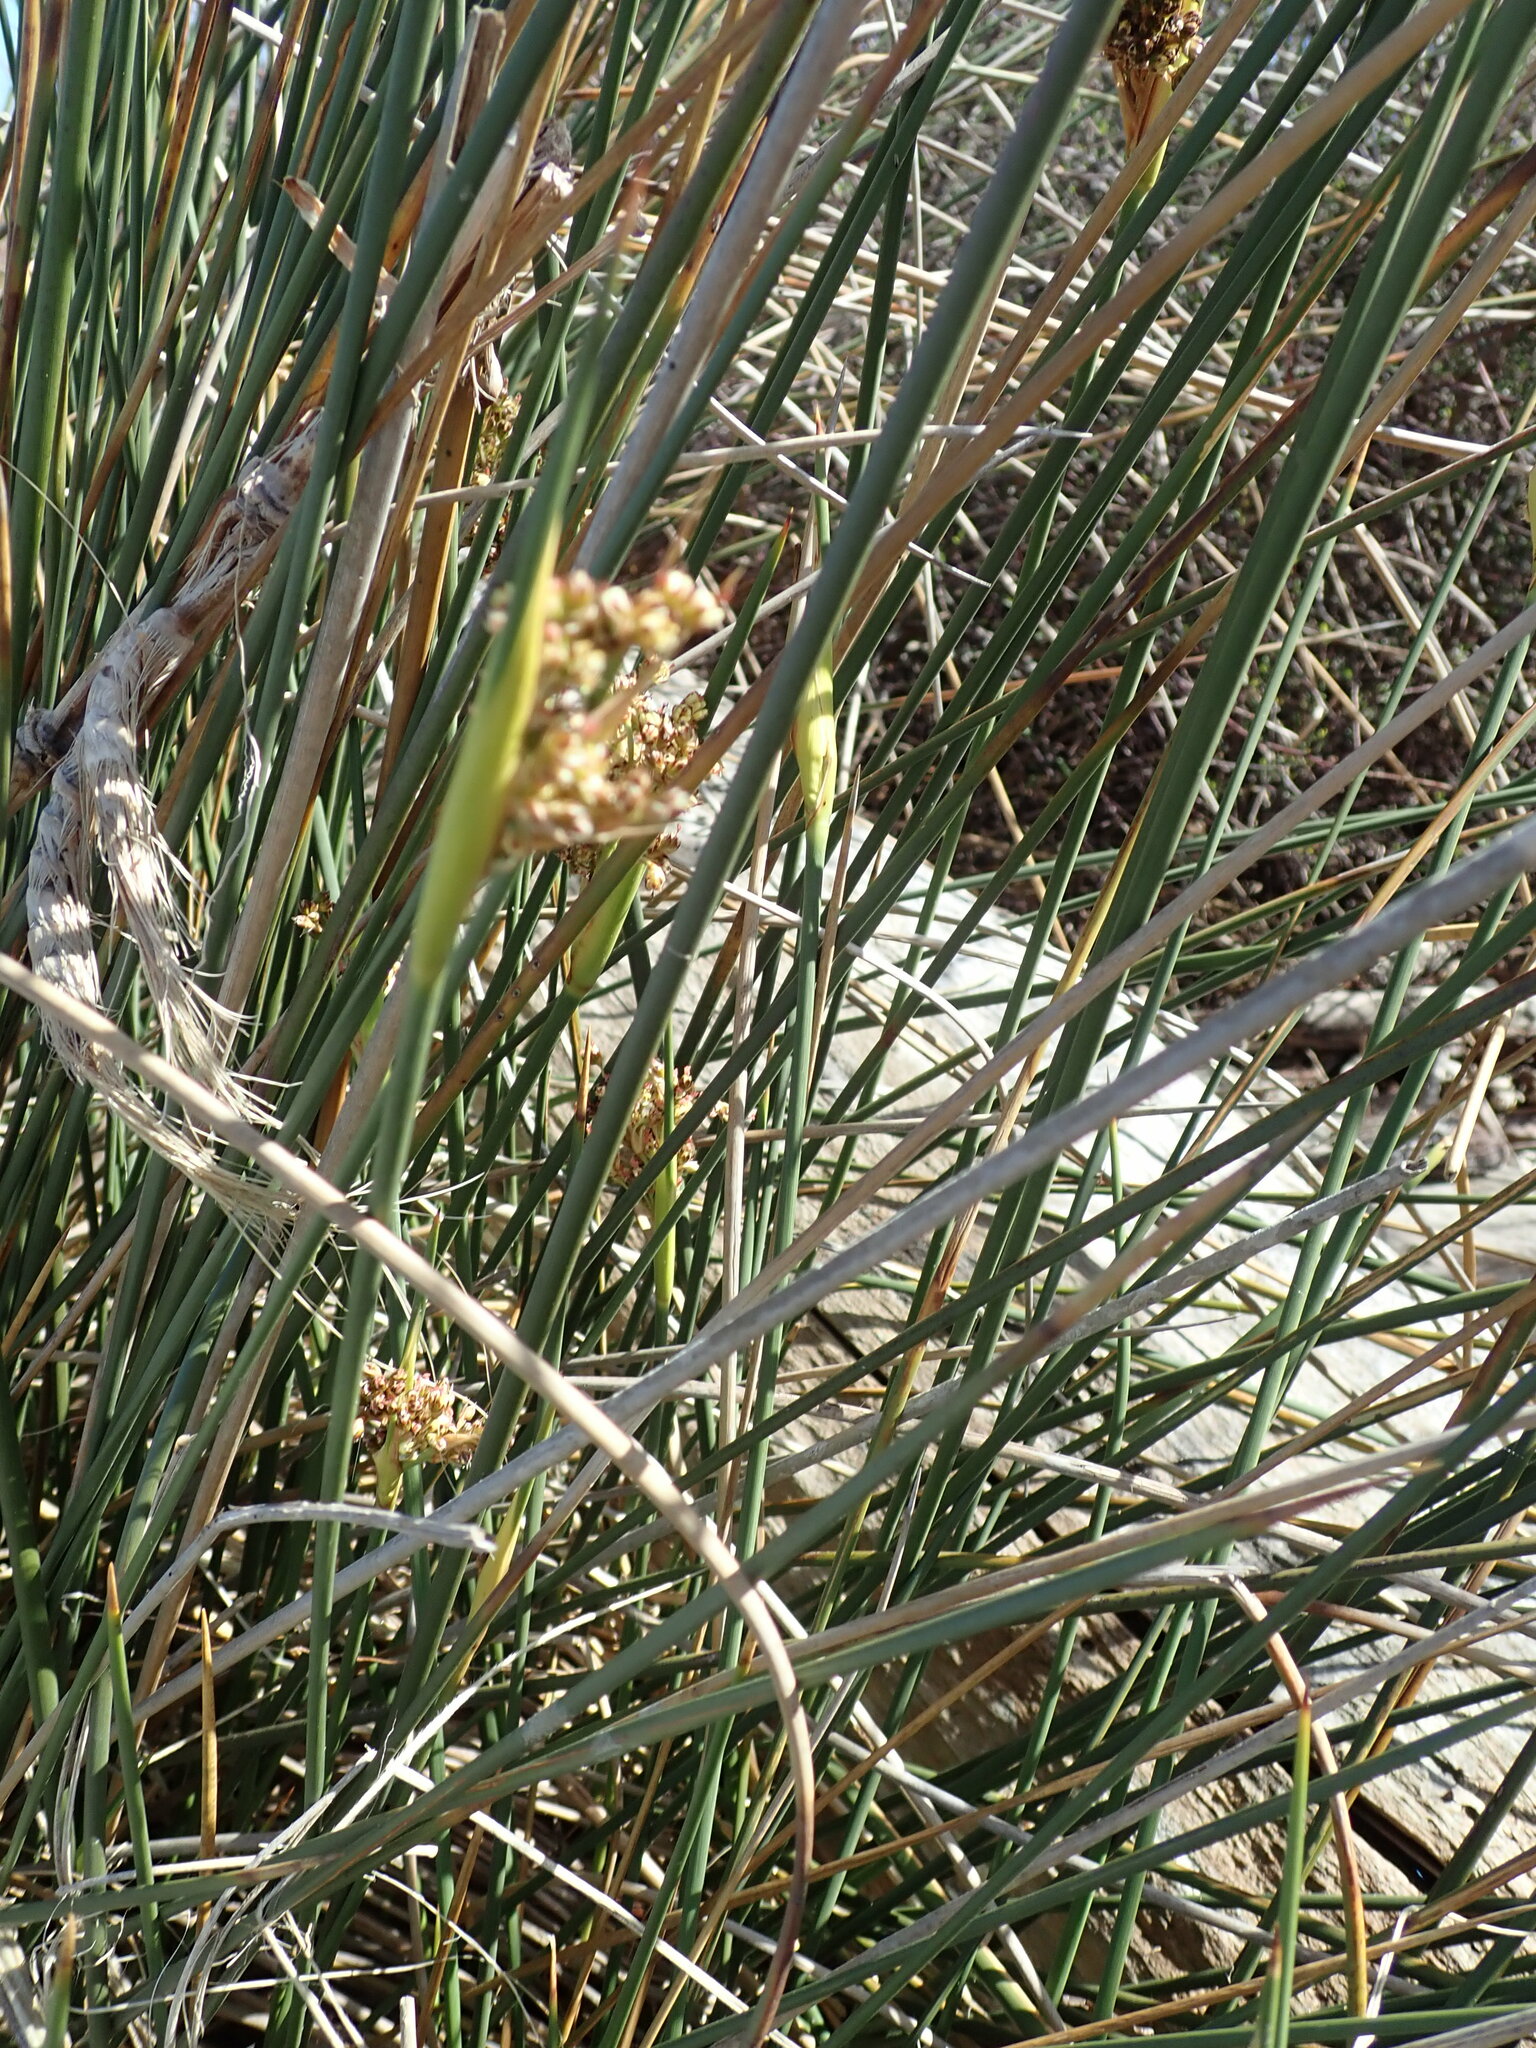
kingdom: Plantae
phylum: Tracheophyta
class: Liliopsida
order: Poales
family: Juncaceae
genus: Juncus
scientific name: Juncus acutus
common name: Sharp rush
